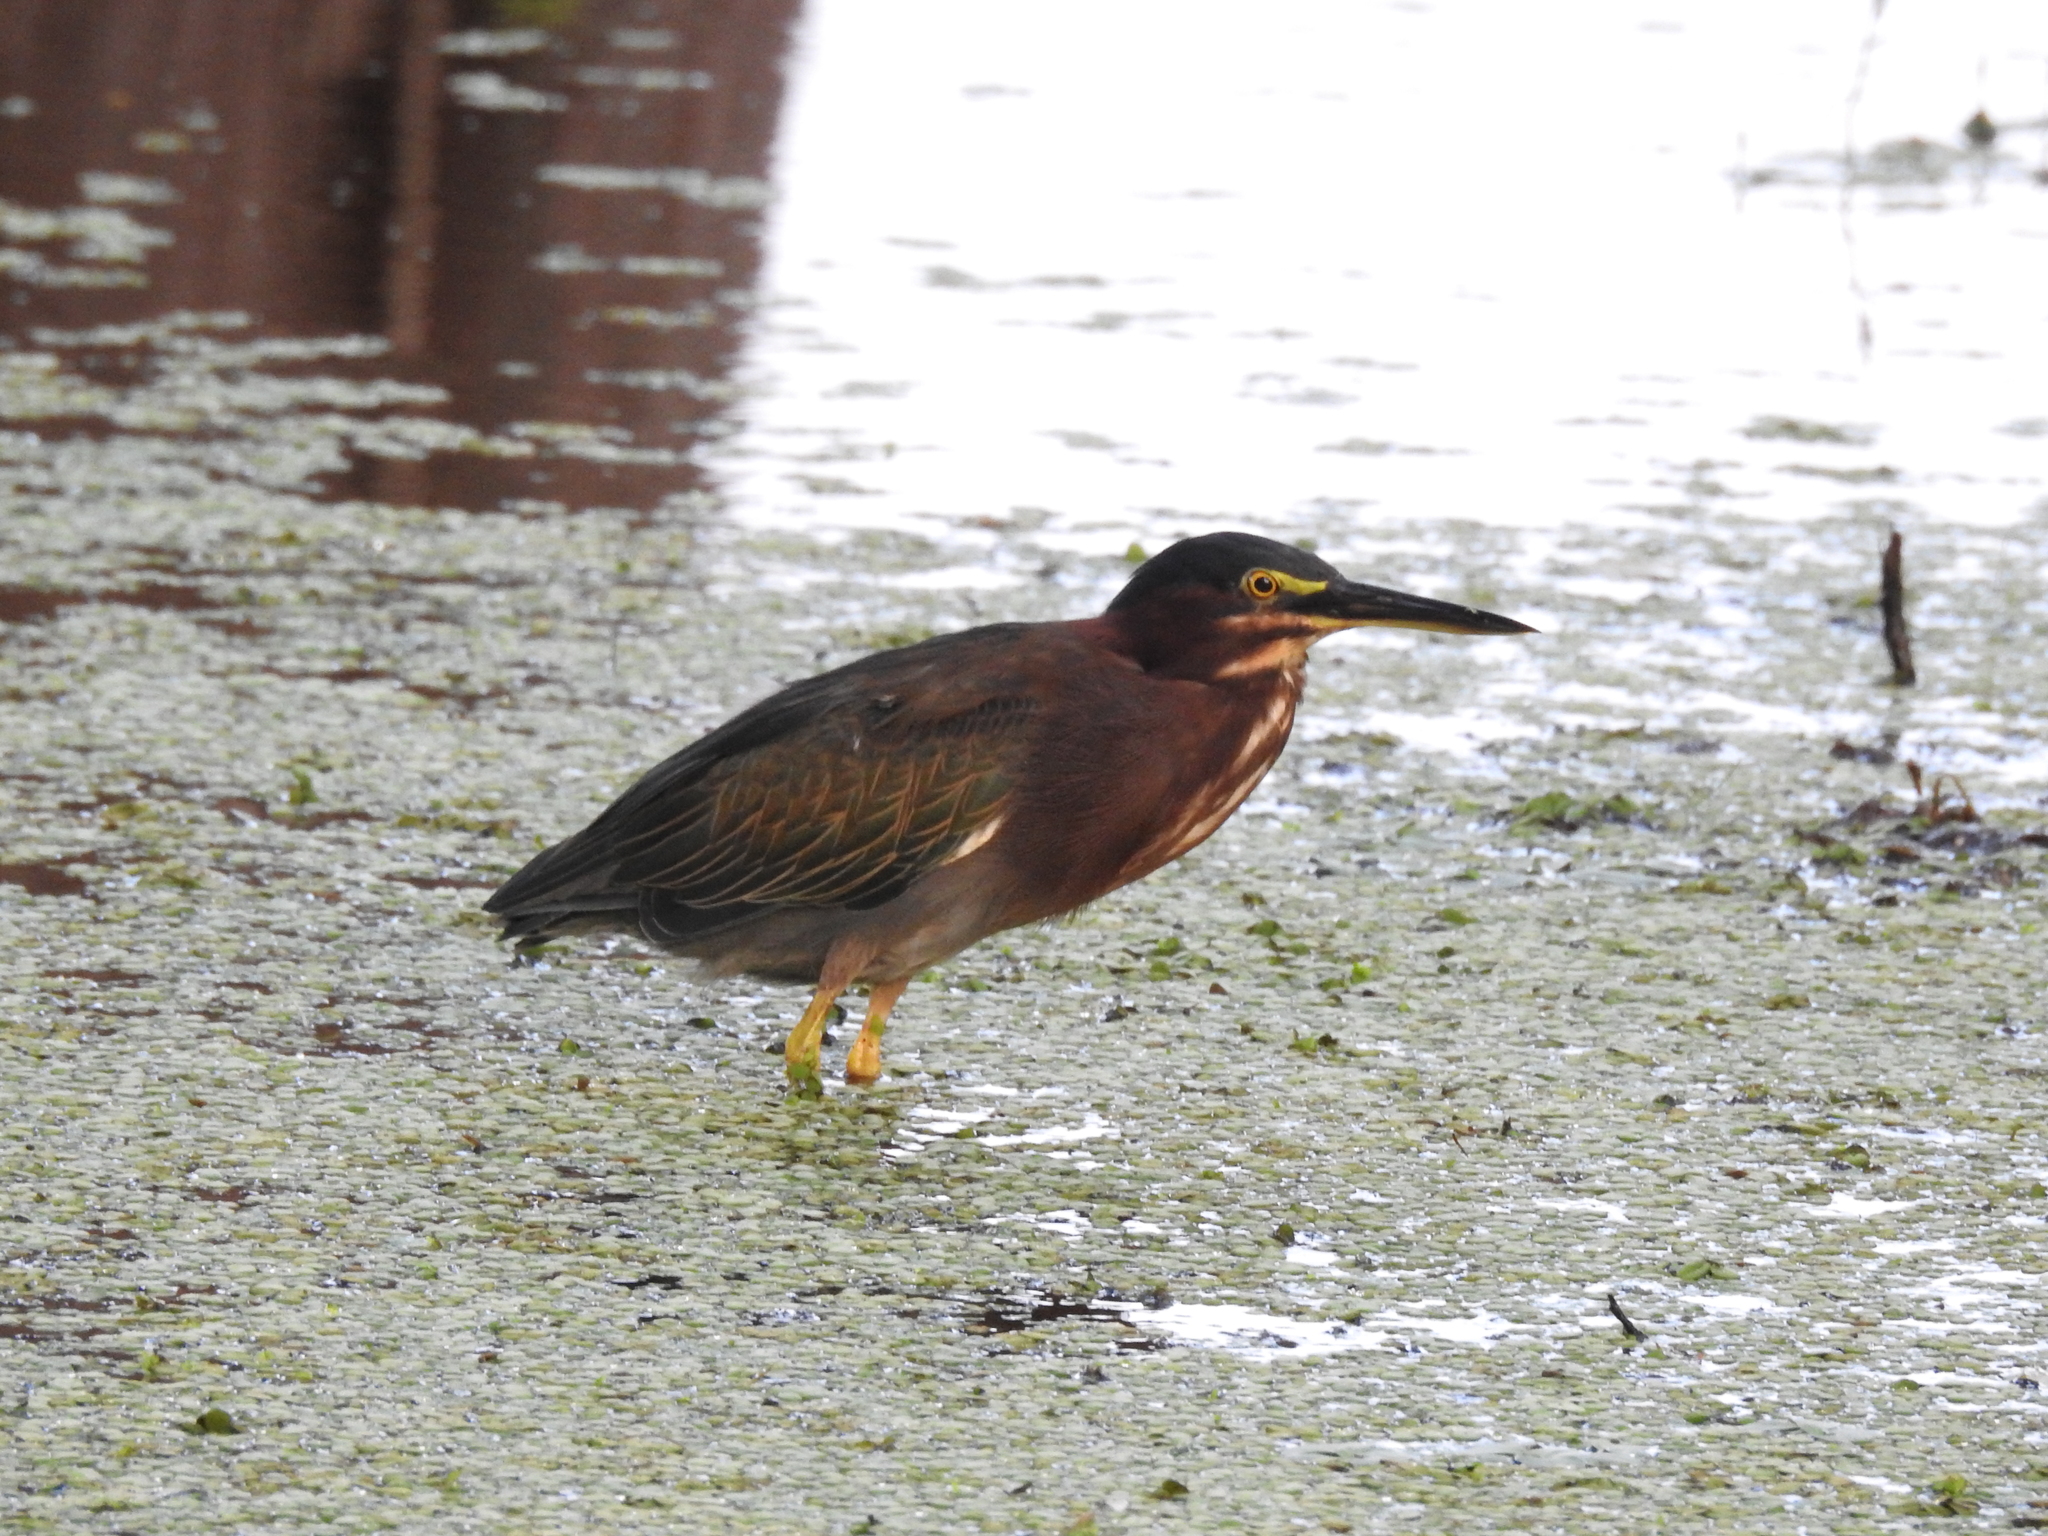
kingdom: Animalia
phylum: Chordata
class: Aves
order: Pelecaniformes
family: Ardeidae
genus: Butorides
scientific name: Butorides virescens
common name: Green heron
